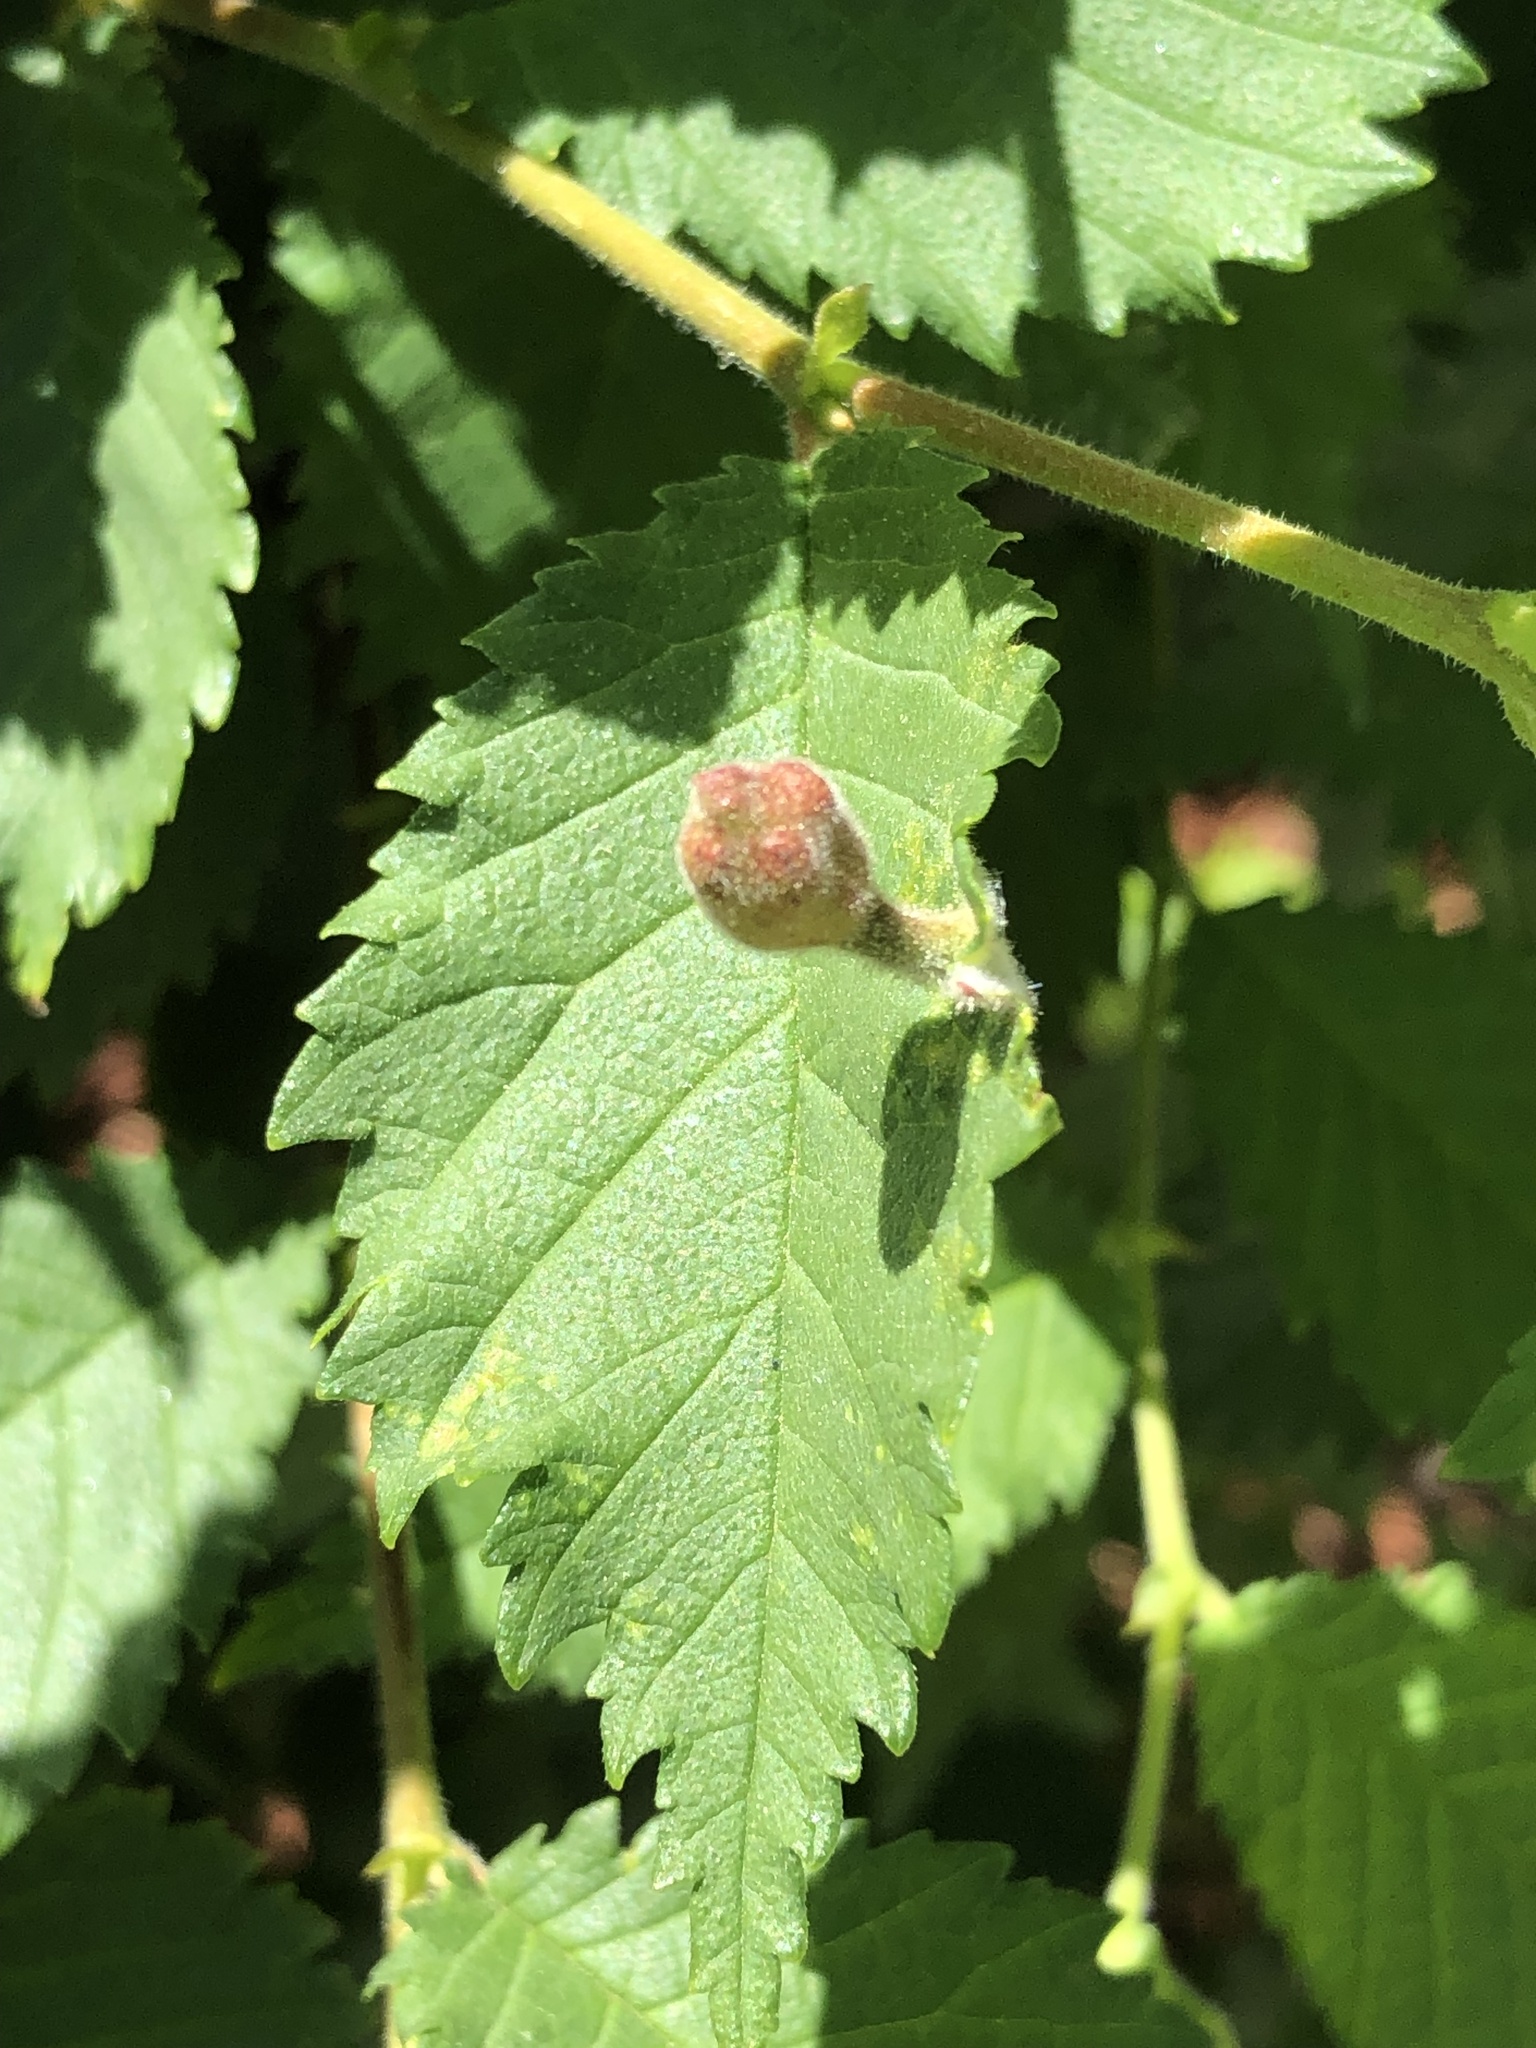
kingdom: Animalia
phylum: Arthropoda
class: Insecta
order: Hemiptera
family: Aphididae
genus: Tetraneura
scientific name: Tetraneura nigriabdominalis
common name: Aphid
